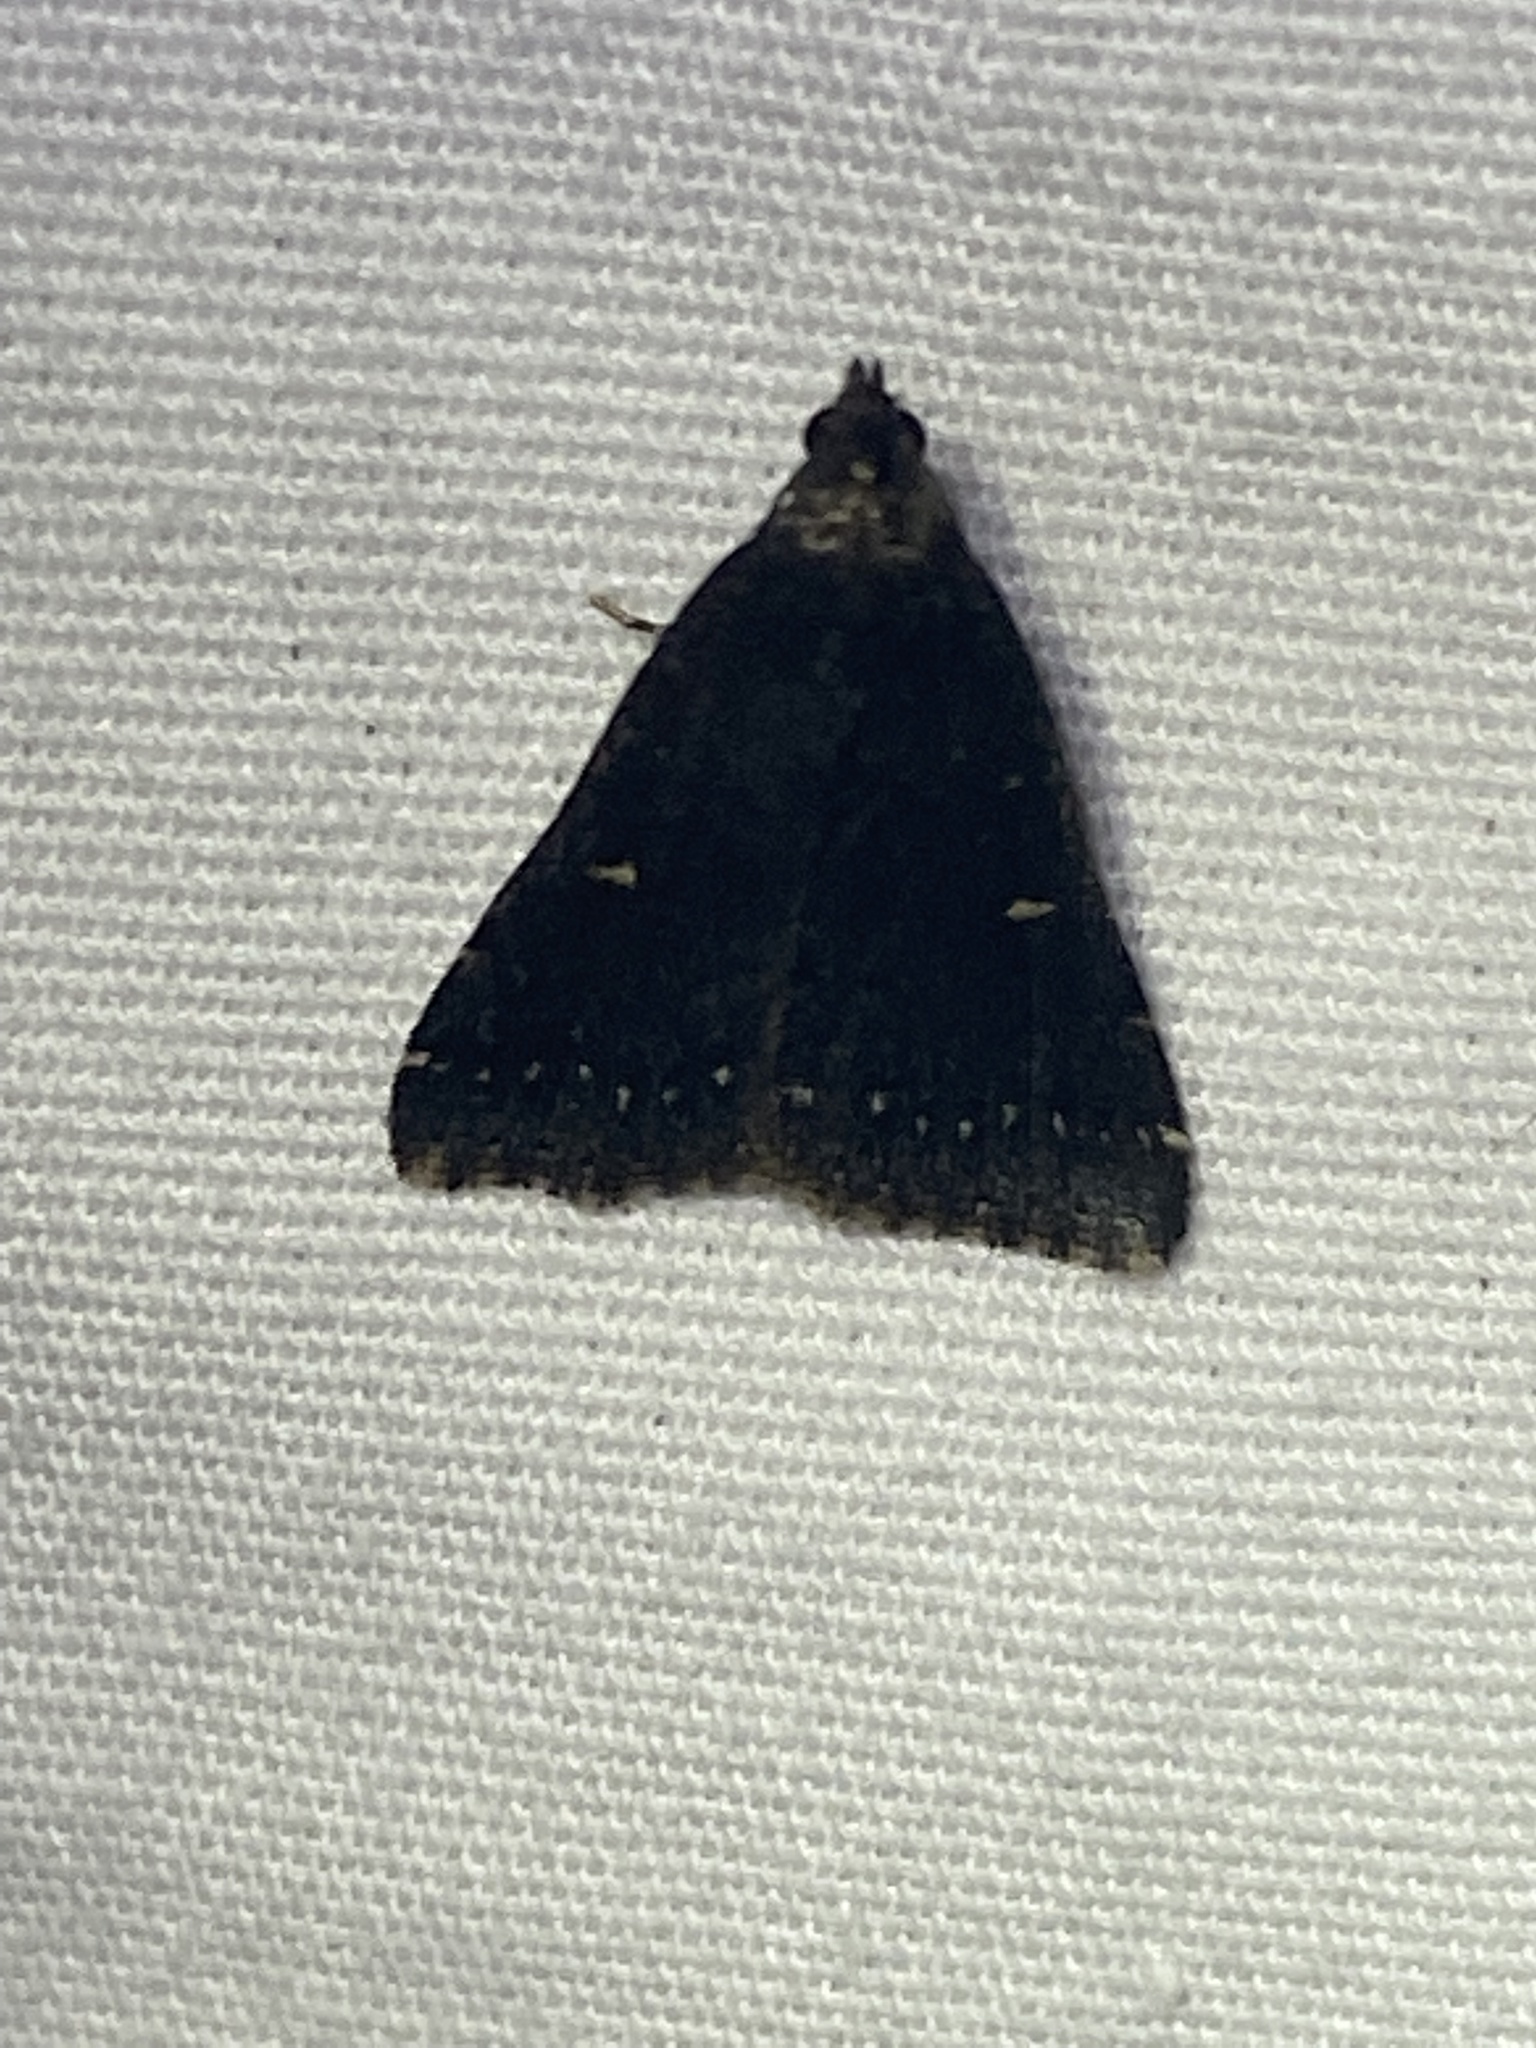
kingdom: Animalia
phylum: Arthropoda
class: Insecta
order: Lepidoptera
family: Erebidae
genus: Tetanolita
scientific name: Tetanolita mynesalis
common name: Smoky tetanolita moth
